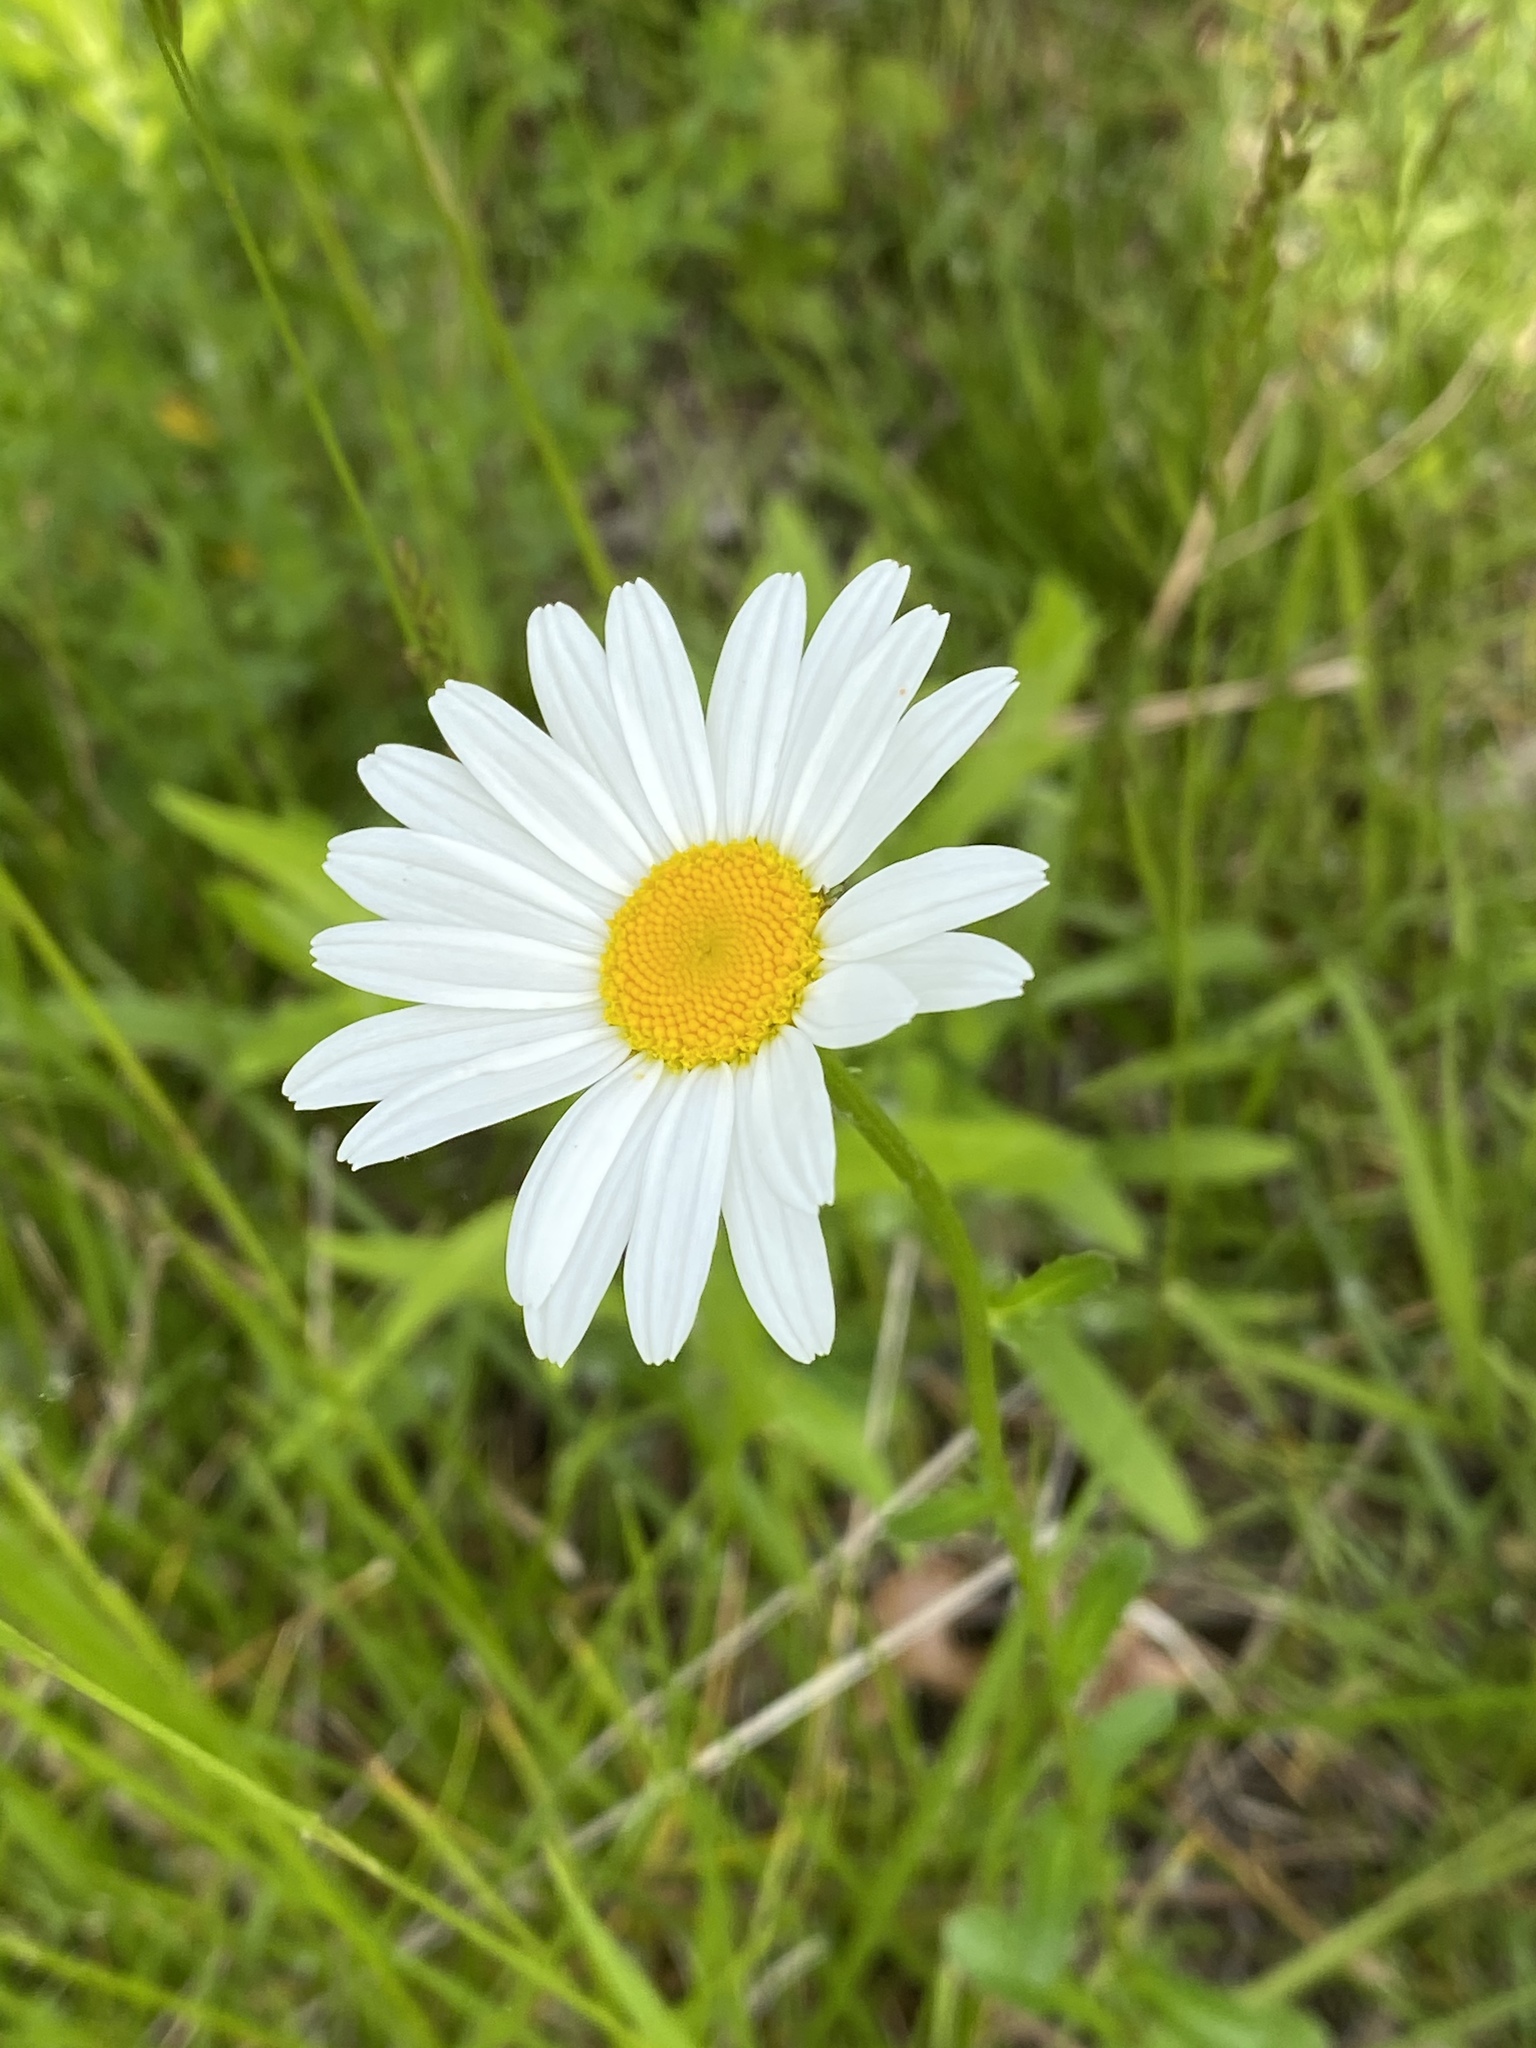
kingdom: Plantae
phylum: Tracheophyta
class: Magnoliopsida
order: Asterales
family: Asteraceae
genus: Leucanthemum
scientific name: Leucanthemum vulgare
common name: Oxeye daisy
